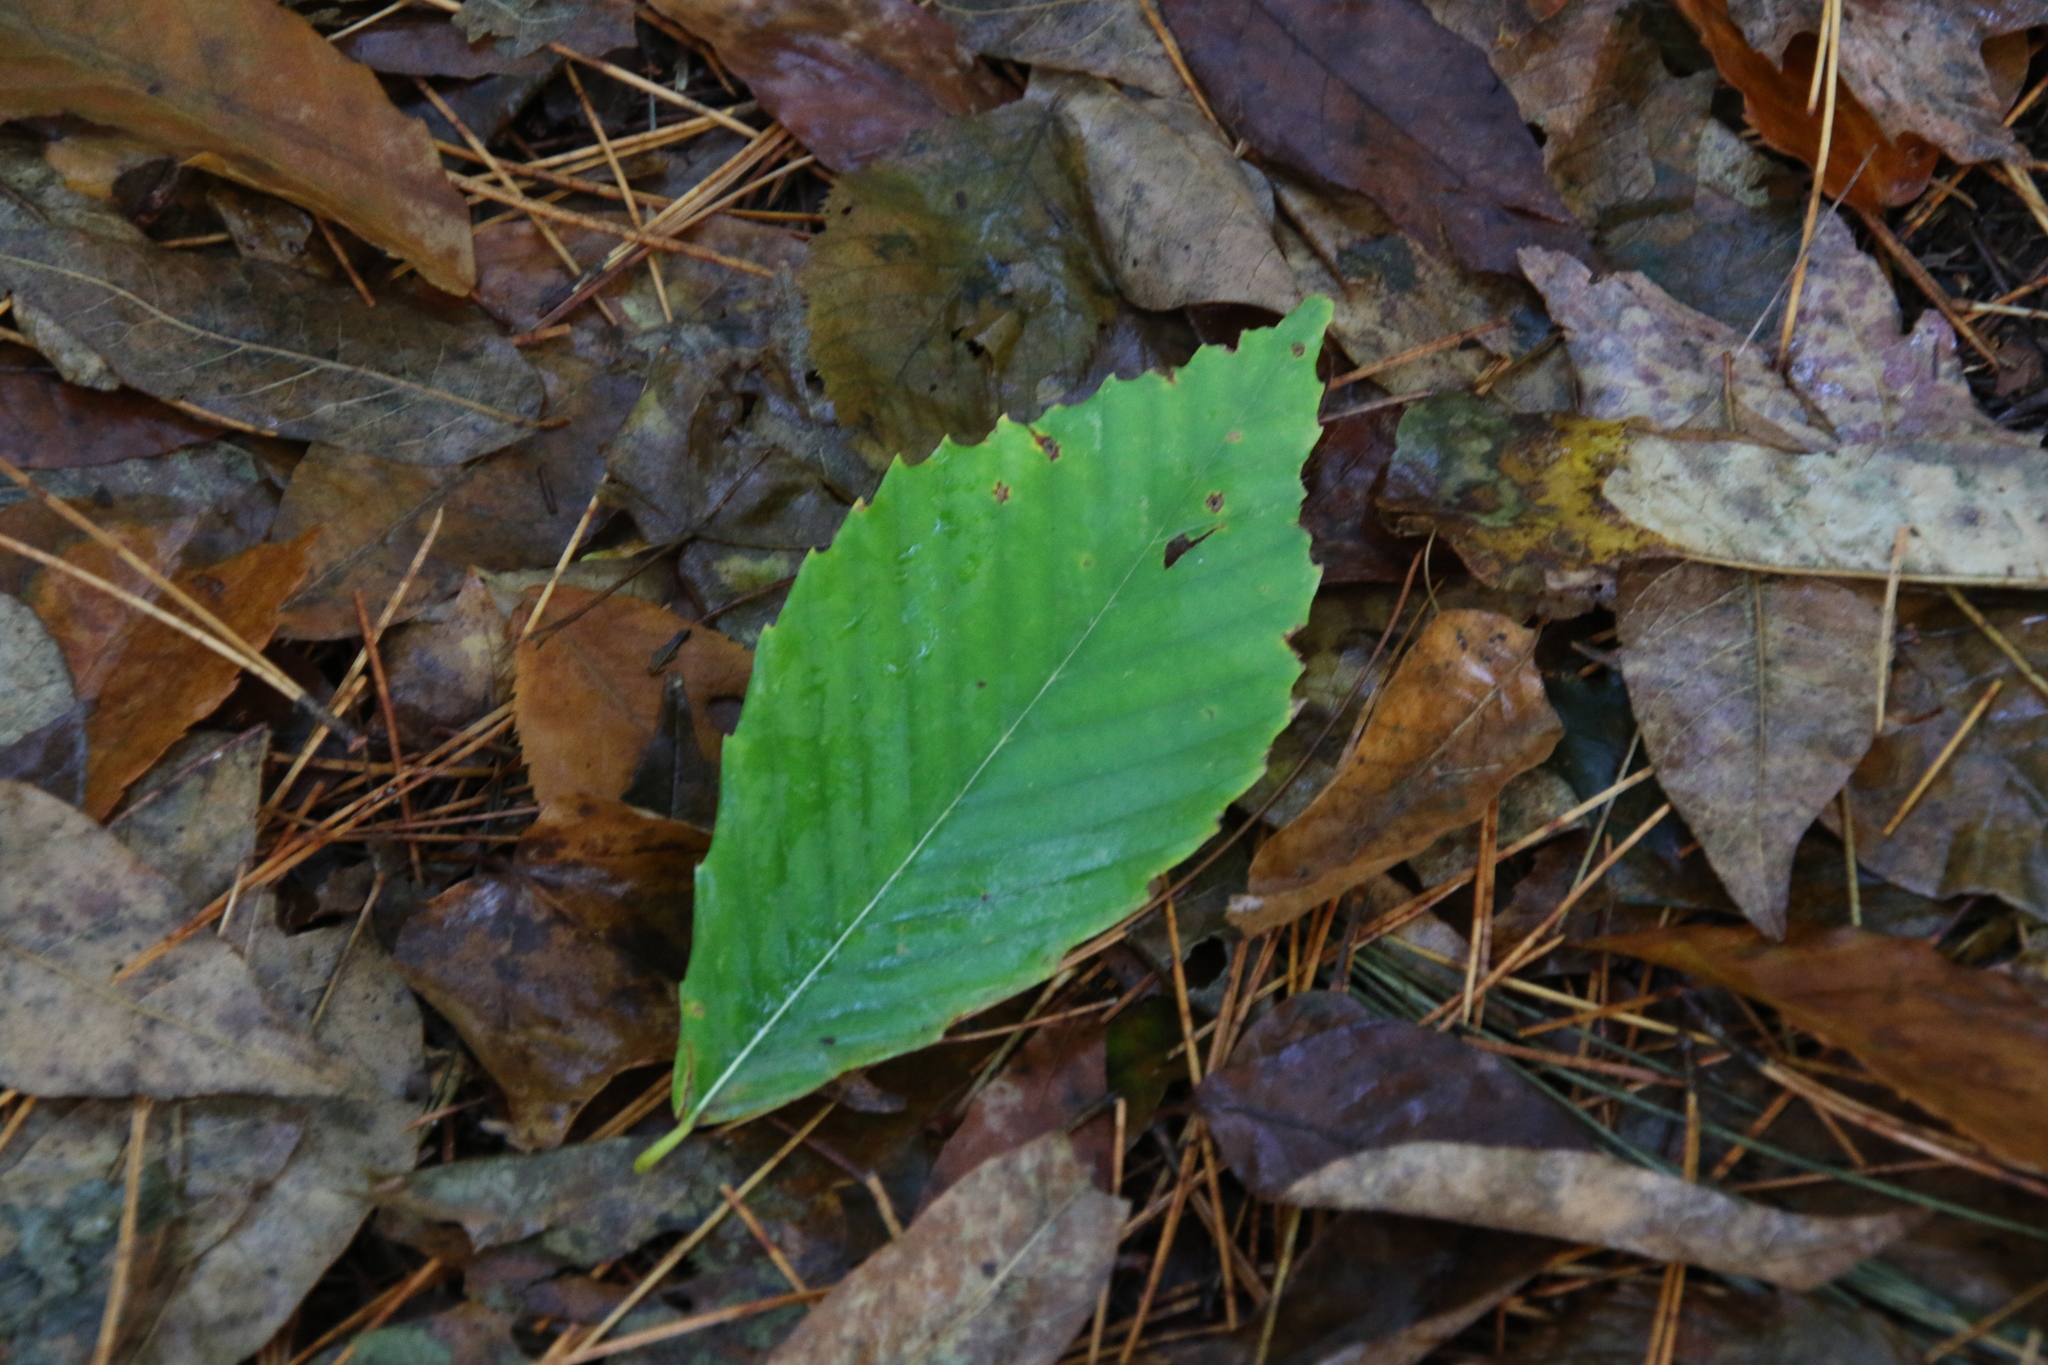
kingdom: Plantae
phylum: Tracheophyta
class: Magnoliopsida
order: Fagales
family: Fagaceae
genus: Fagus
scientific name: Fagus grandifolia
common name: American beech
